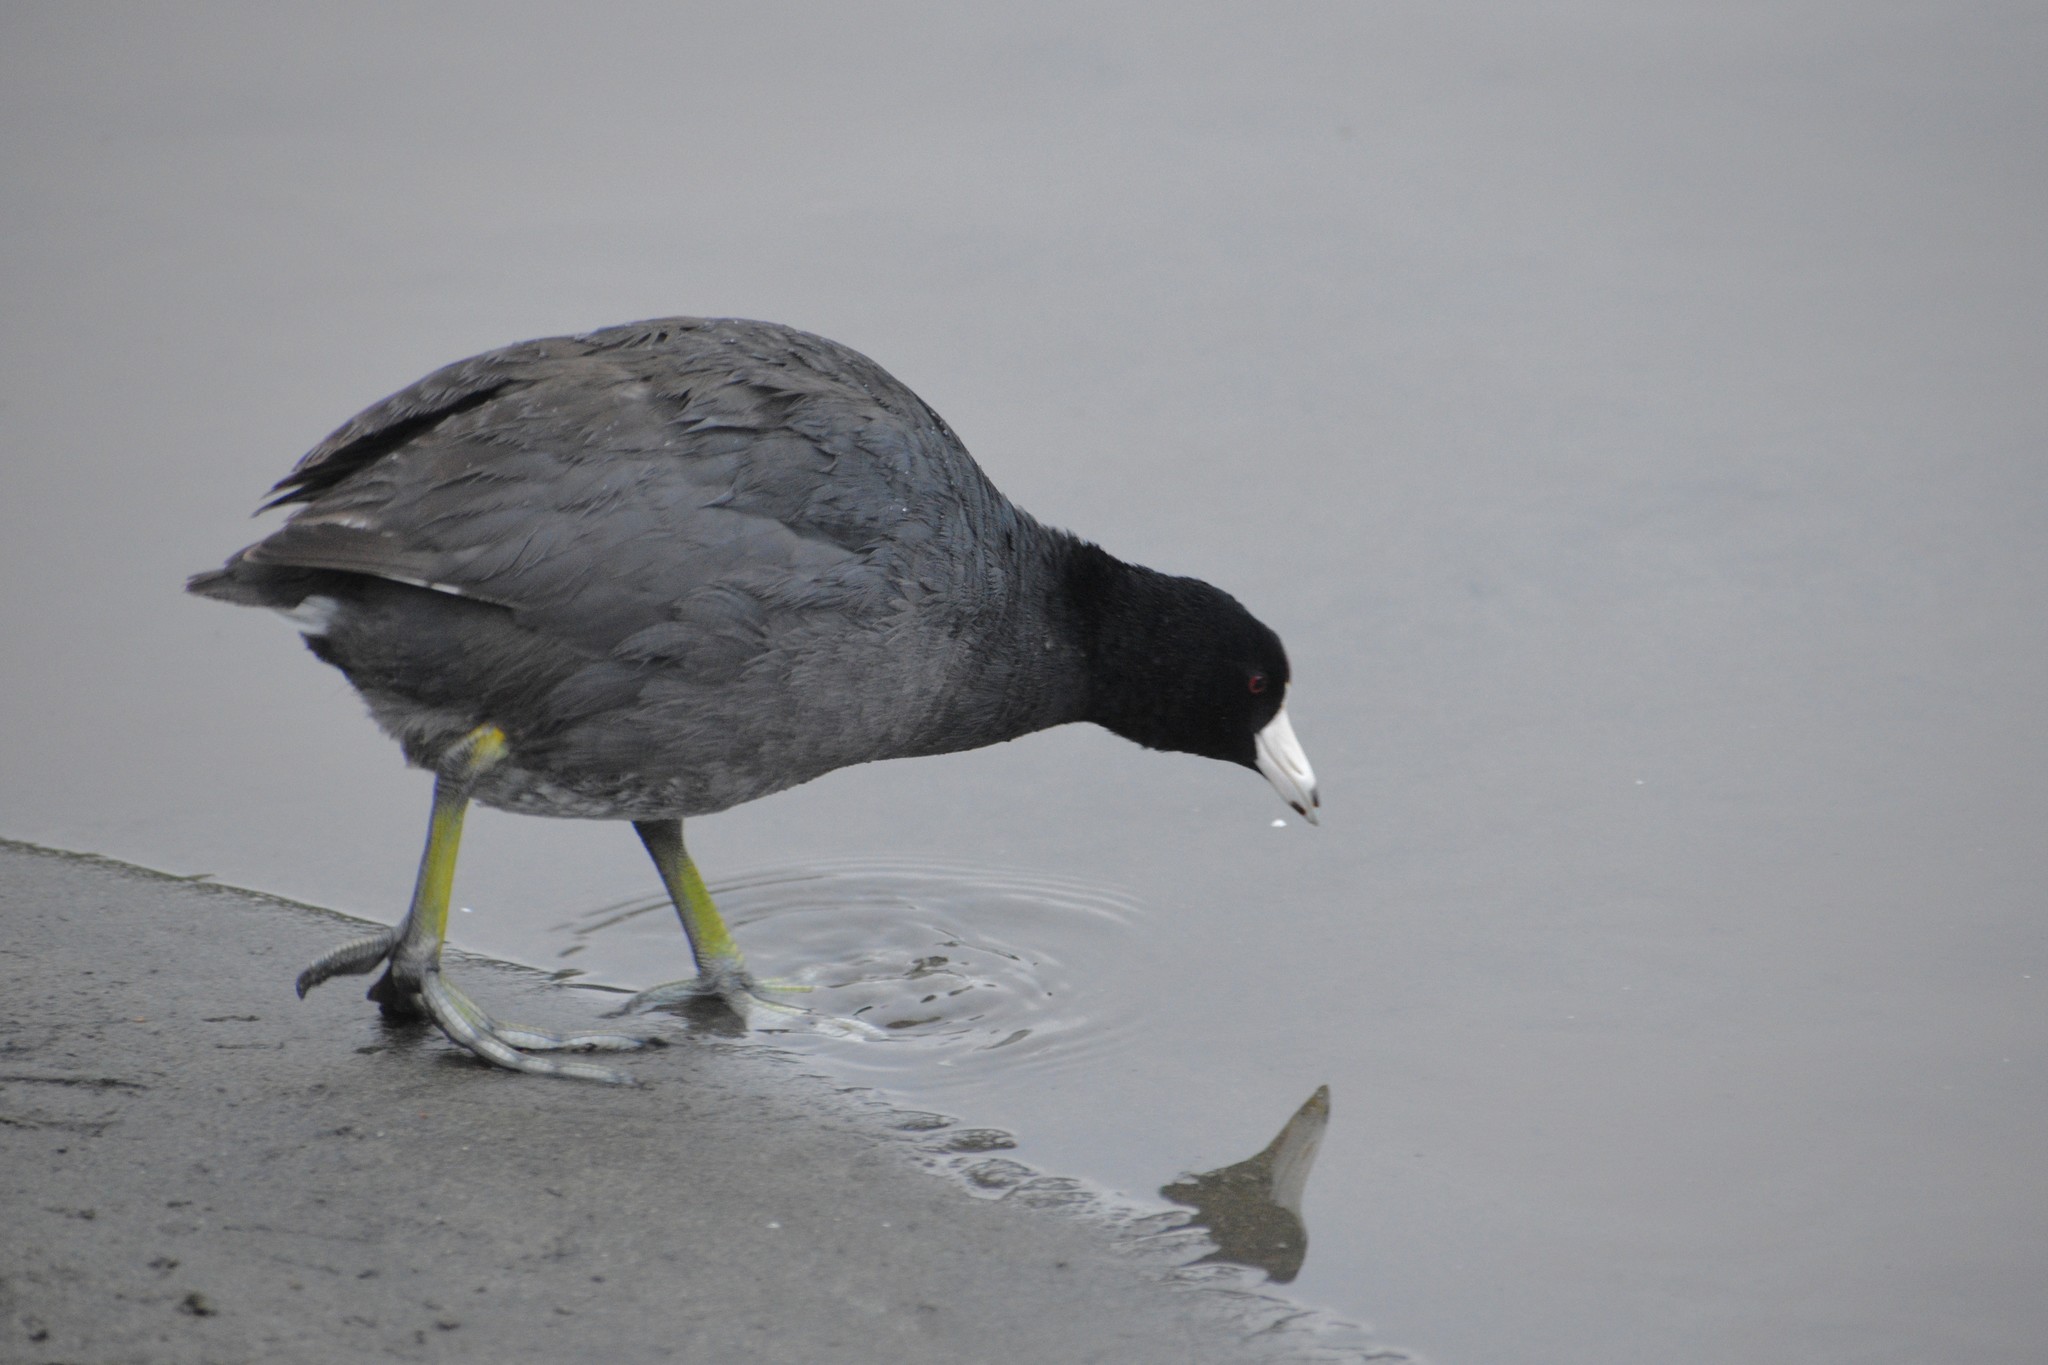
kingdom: Animalia
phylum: Chordata
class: Aves
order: Gruiformes
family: Rallidae
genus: Fulica
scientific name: Fulica americana
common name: American coot
